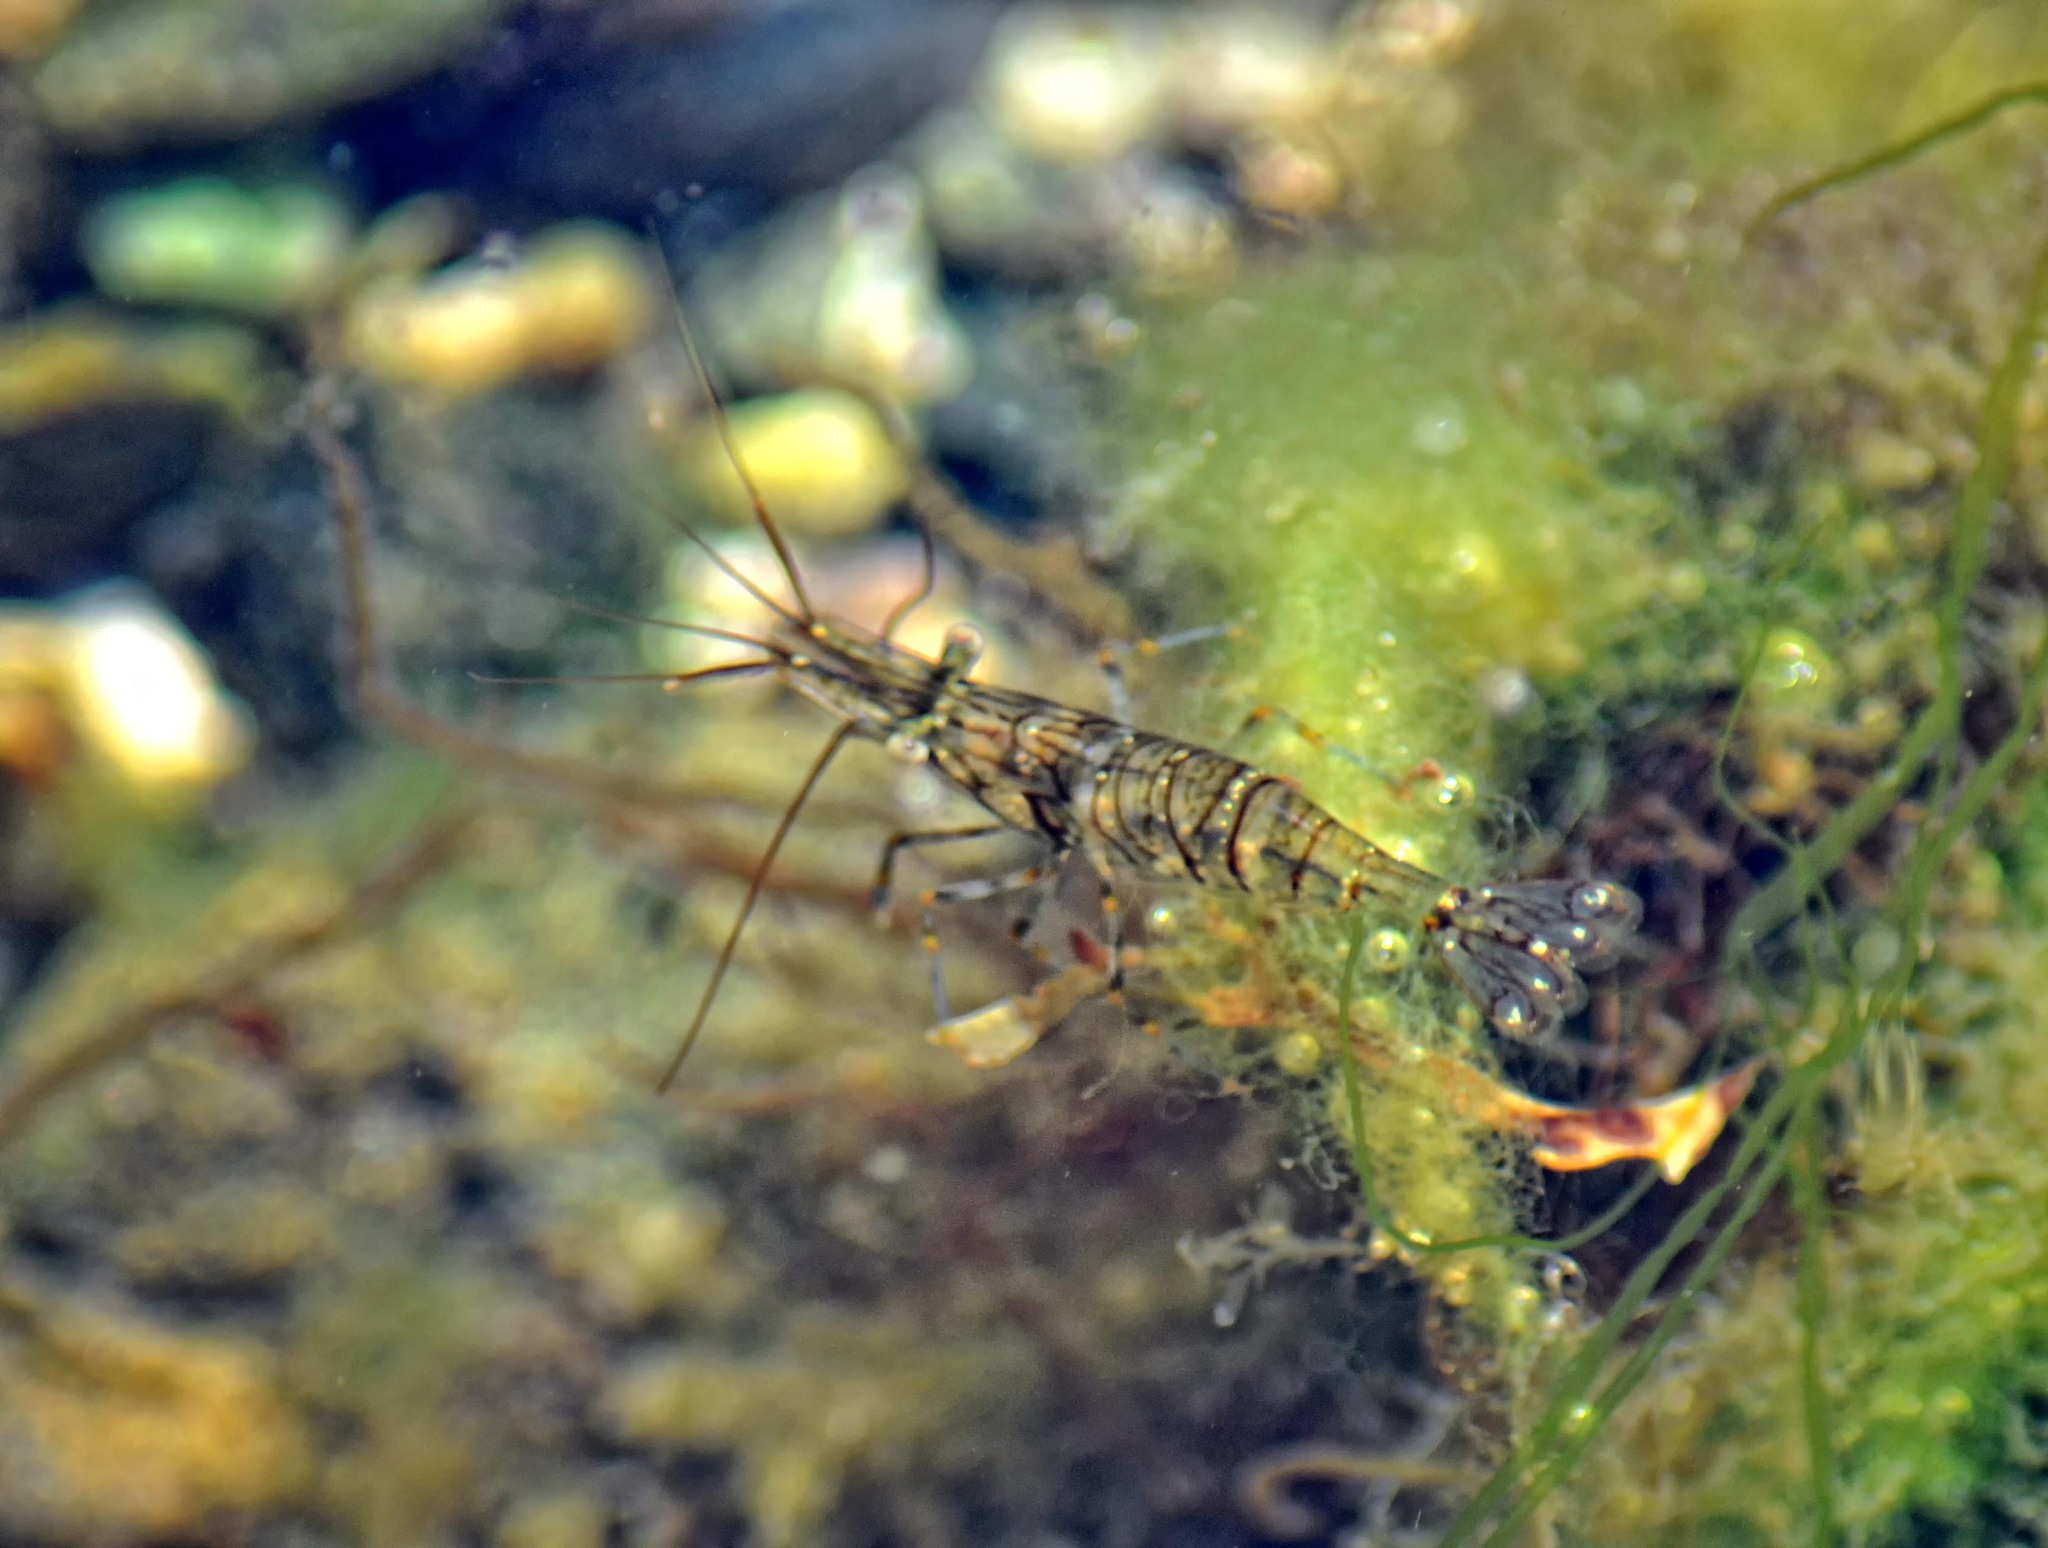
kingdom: Animalia
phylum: Arthropoda
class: Malacostraca
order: Decapoda
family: Palaemonidae
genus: Palaemon
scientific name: Palaemon elegans
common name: Grass prawm
